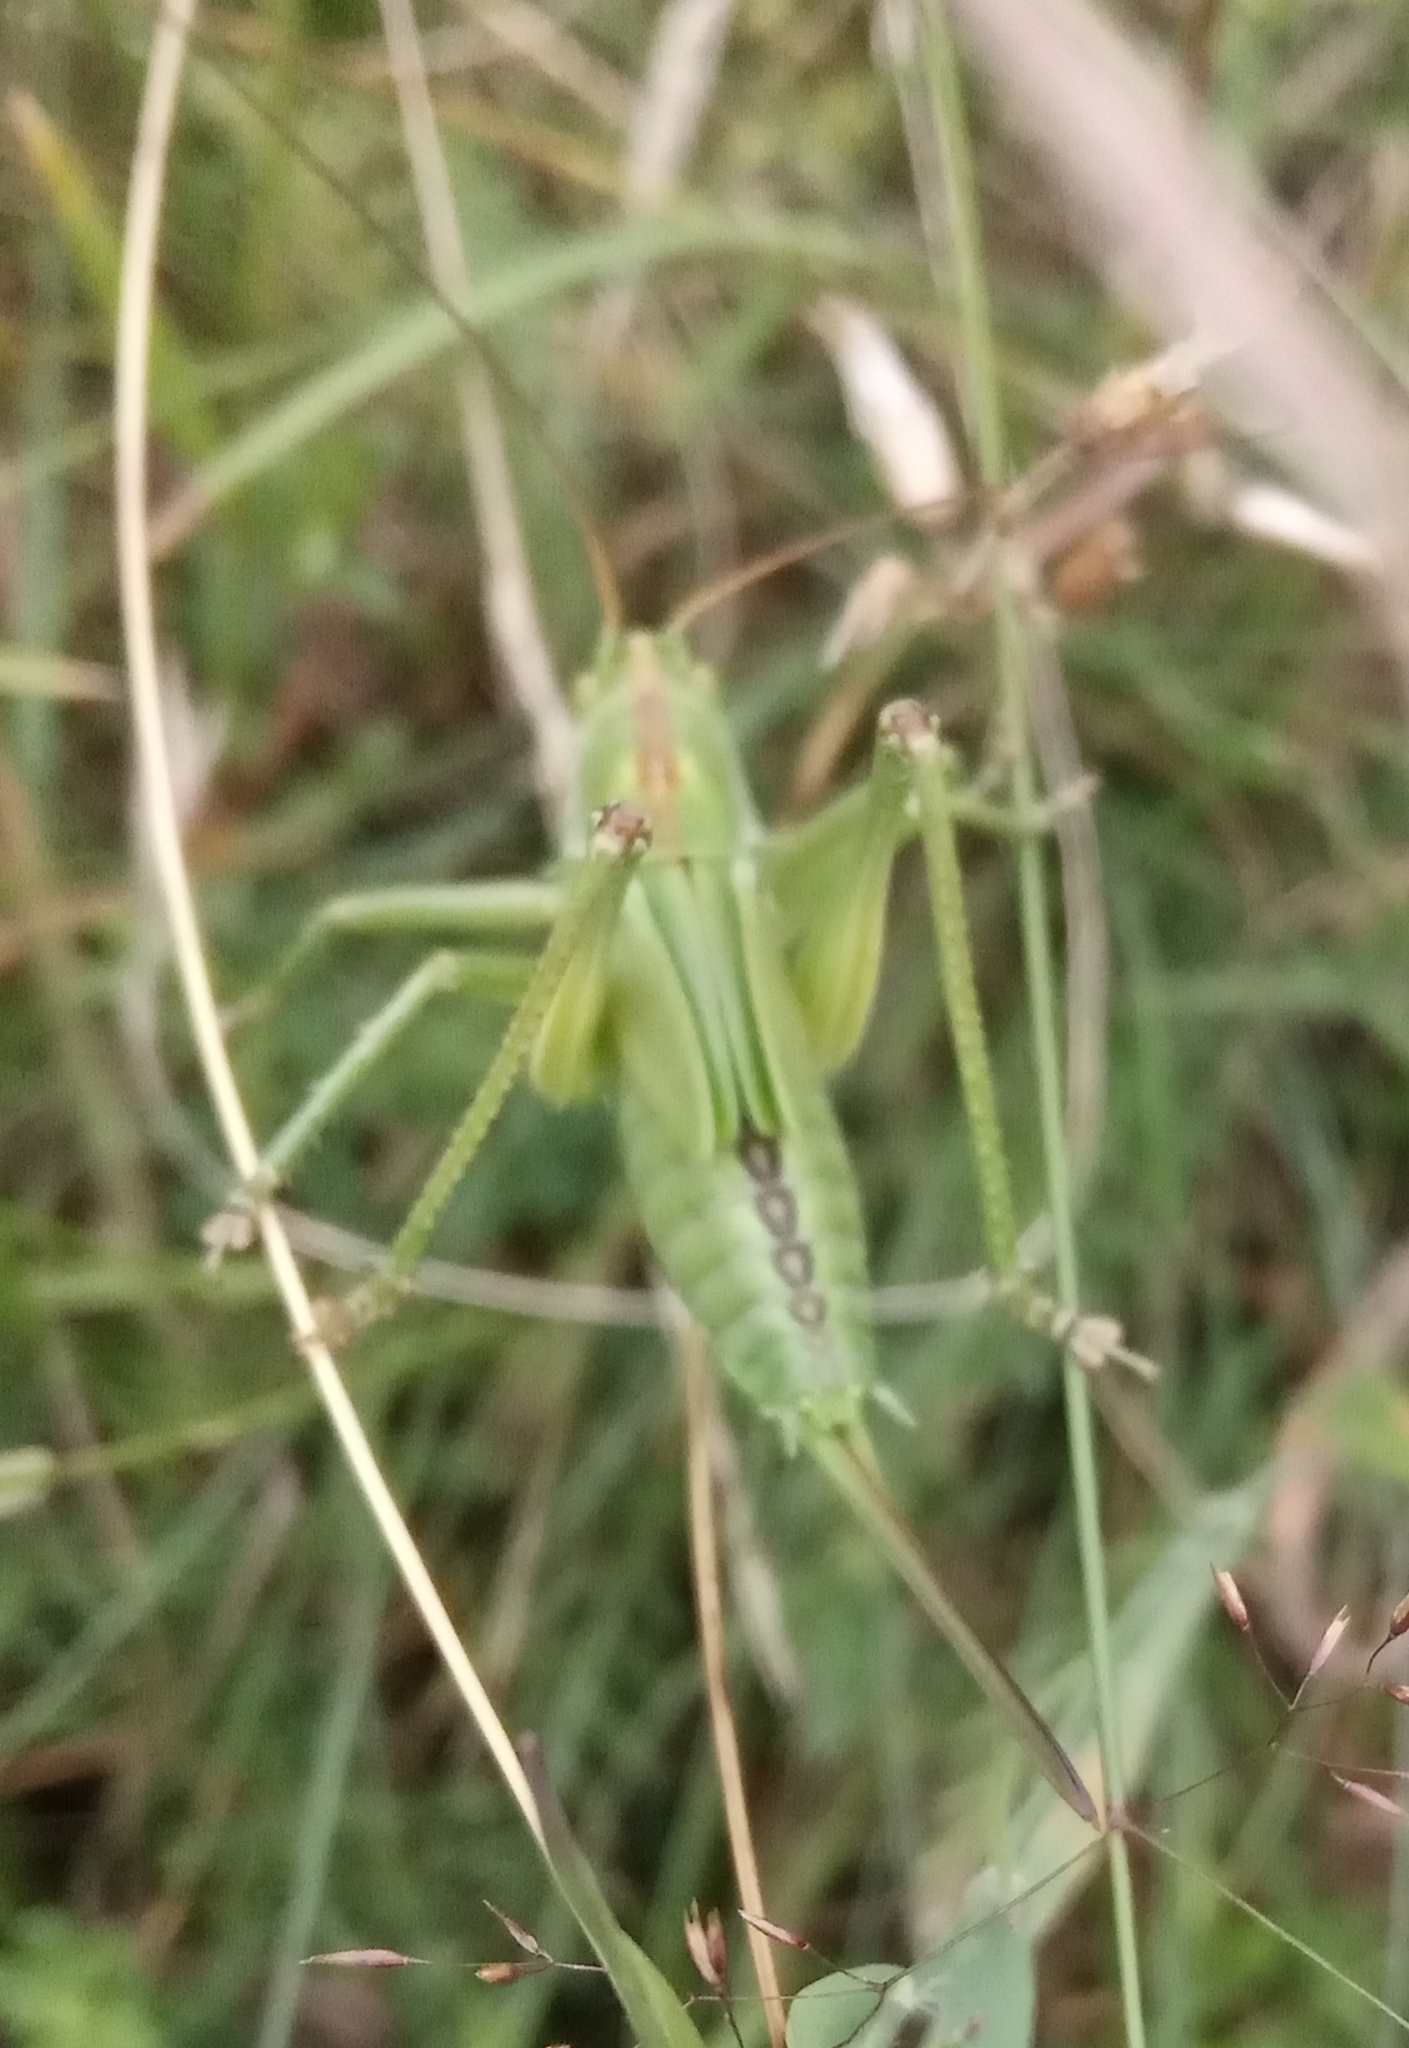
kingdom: Animalia
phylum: Arthropoda
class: Insecta
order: Orthoptera
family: Tettigoniidae
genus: Tettigonia
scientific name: Tettigonia viridissima
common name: Great green bush-cricket
